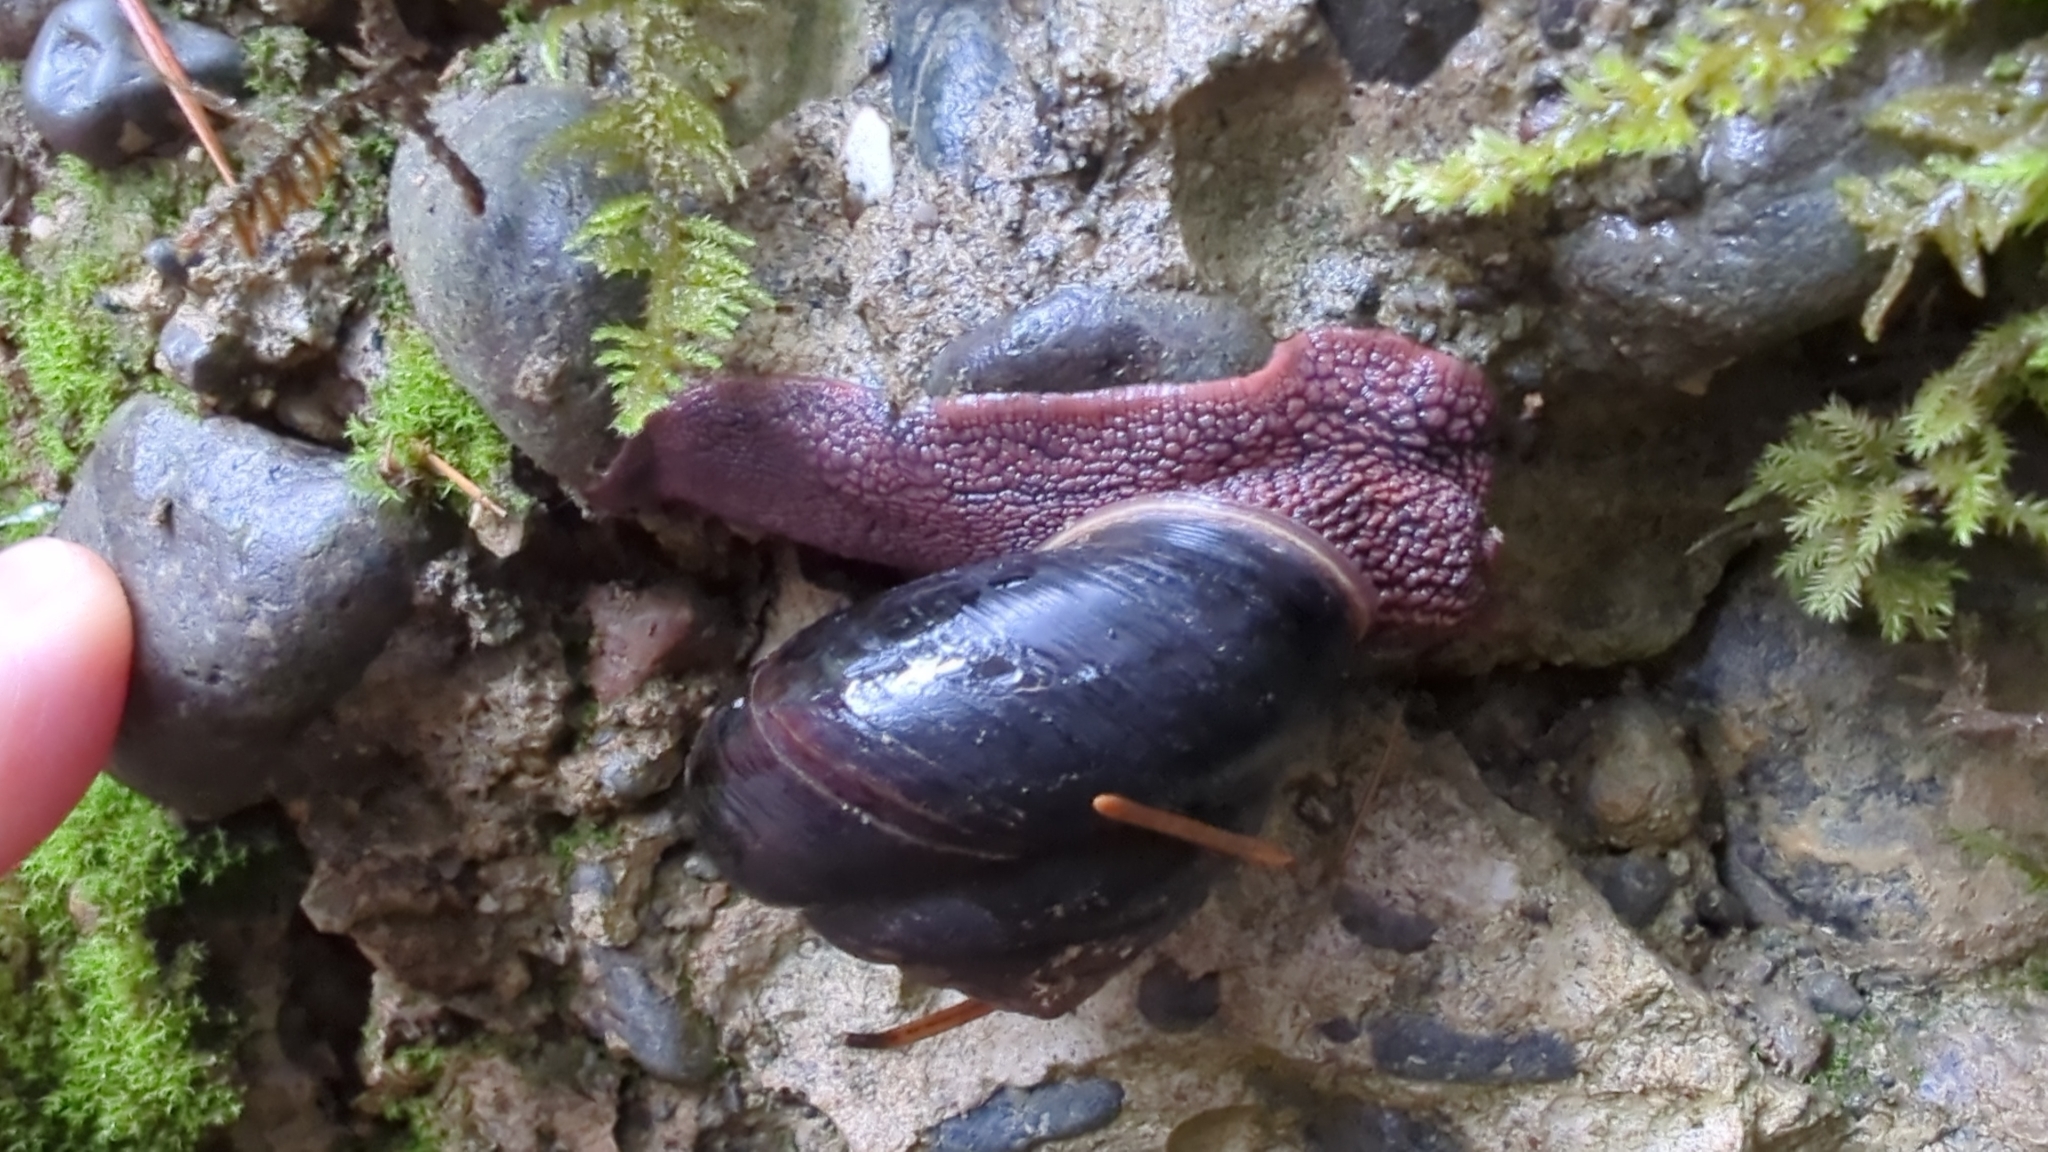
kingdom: Animalia
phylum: Mollusca
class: Gastropoda
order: Stylommatophora
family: Xanthonychidae
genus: Monadenia
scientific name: Monadenia fidelis
